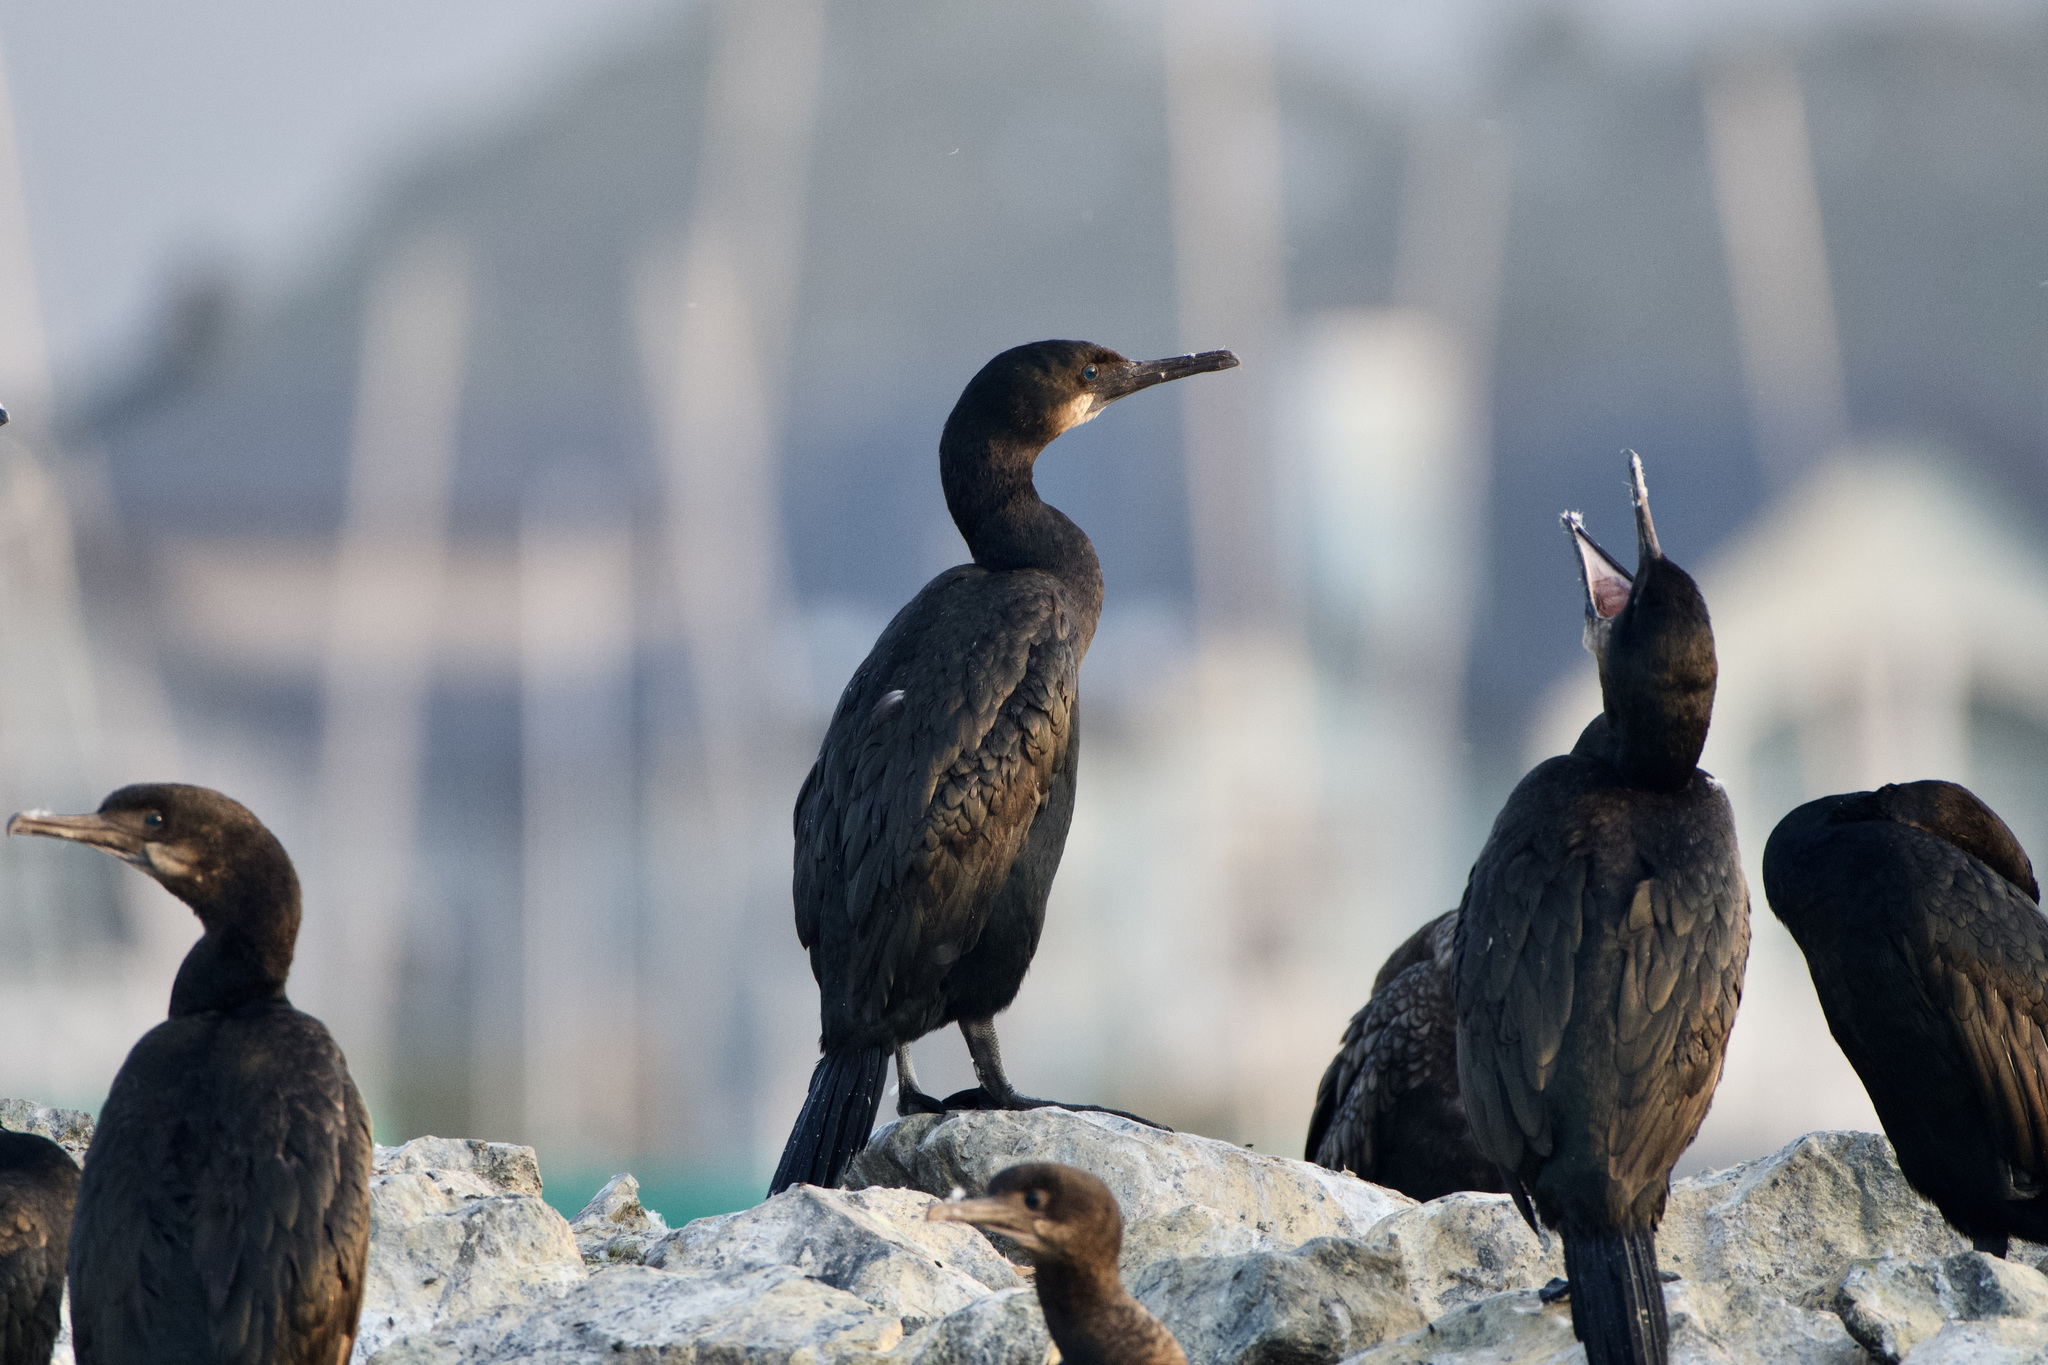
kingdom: Animalia
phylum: Chordata
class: Aves
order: Suliformes
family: Phalacrocoracidae
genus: Urile
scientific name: Urile penicillatus
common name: Brandt's cormorant
